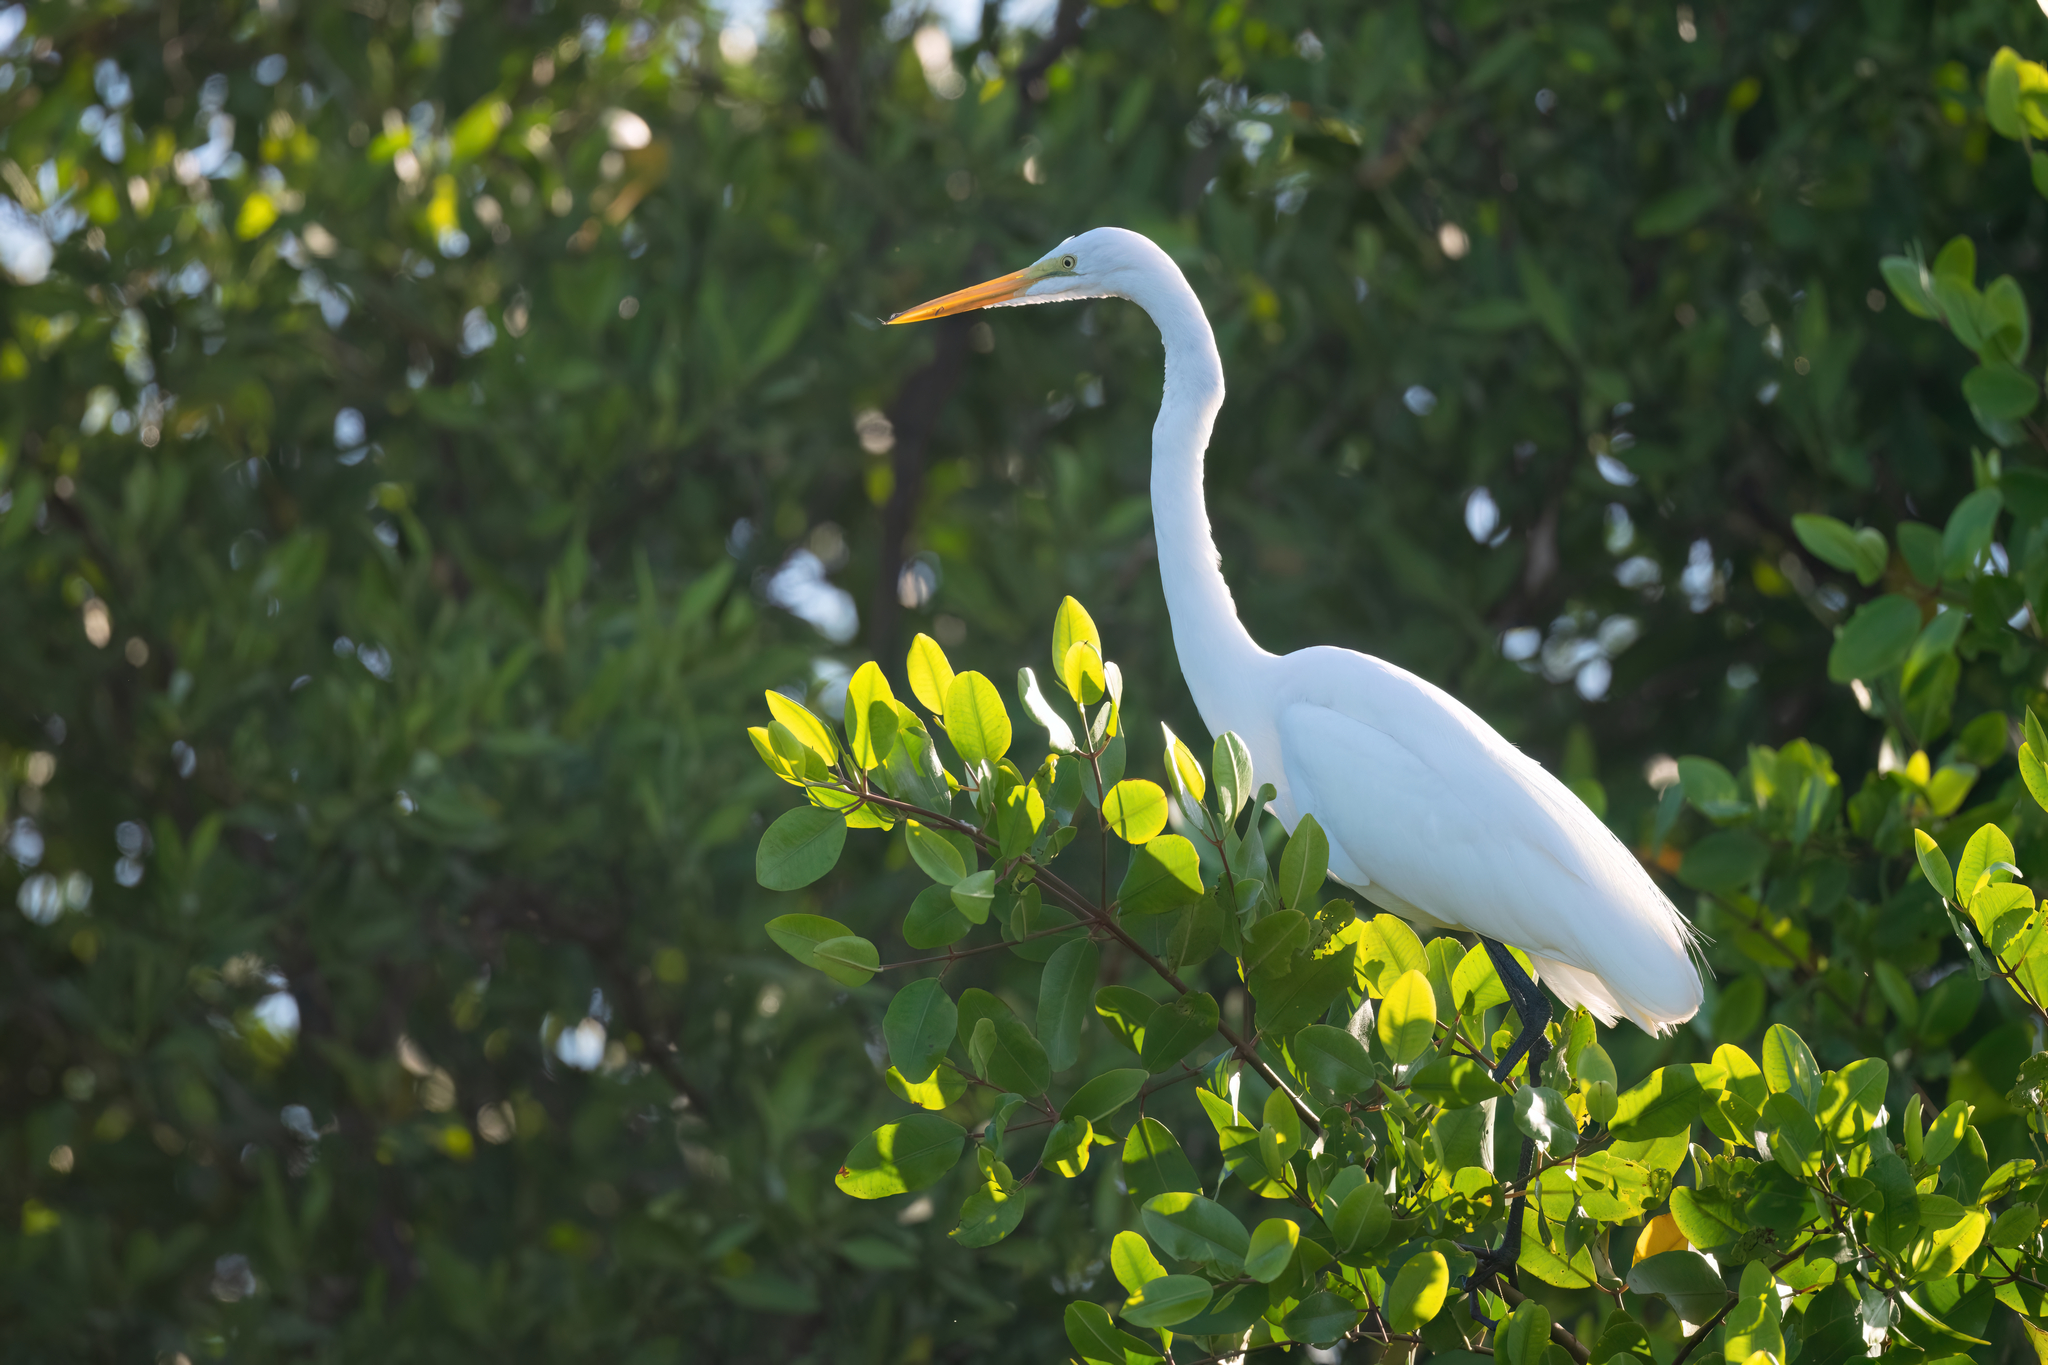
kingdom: Animalia
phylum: Chordata
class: Aves
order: Pelecaniformes
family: Ardeidae
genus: Ardea
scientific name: Ardea alba
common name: Great egret
